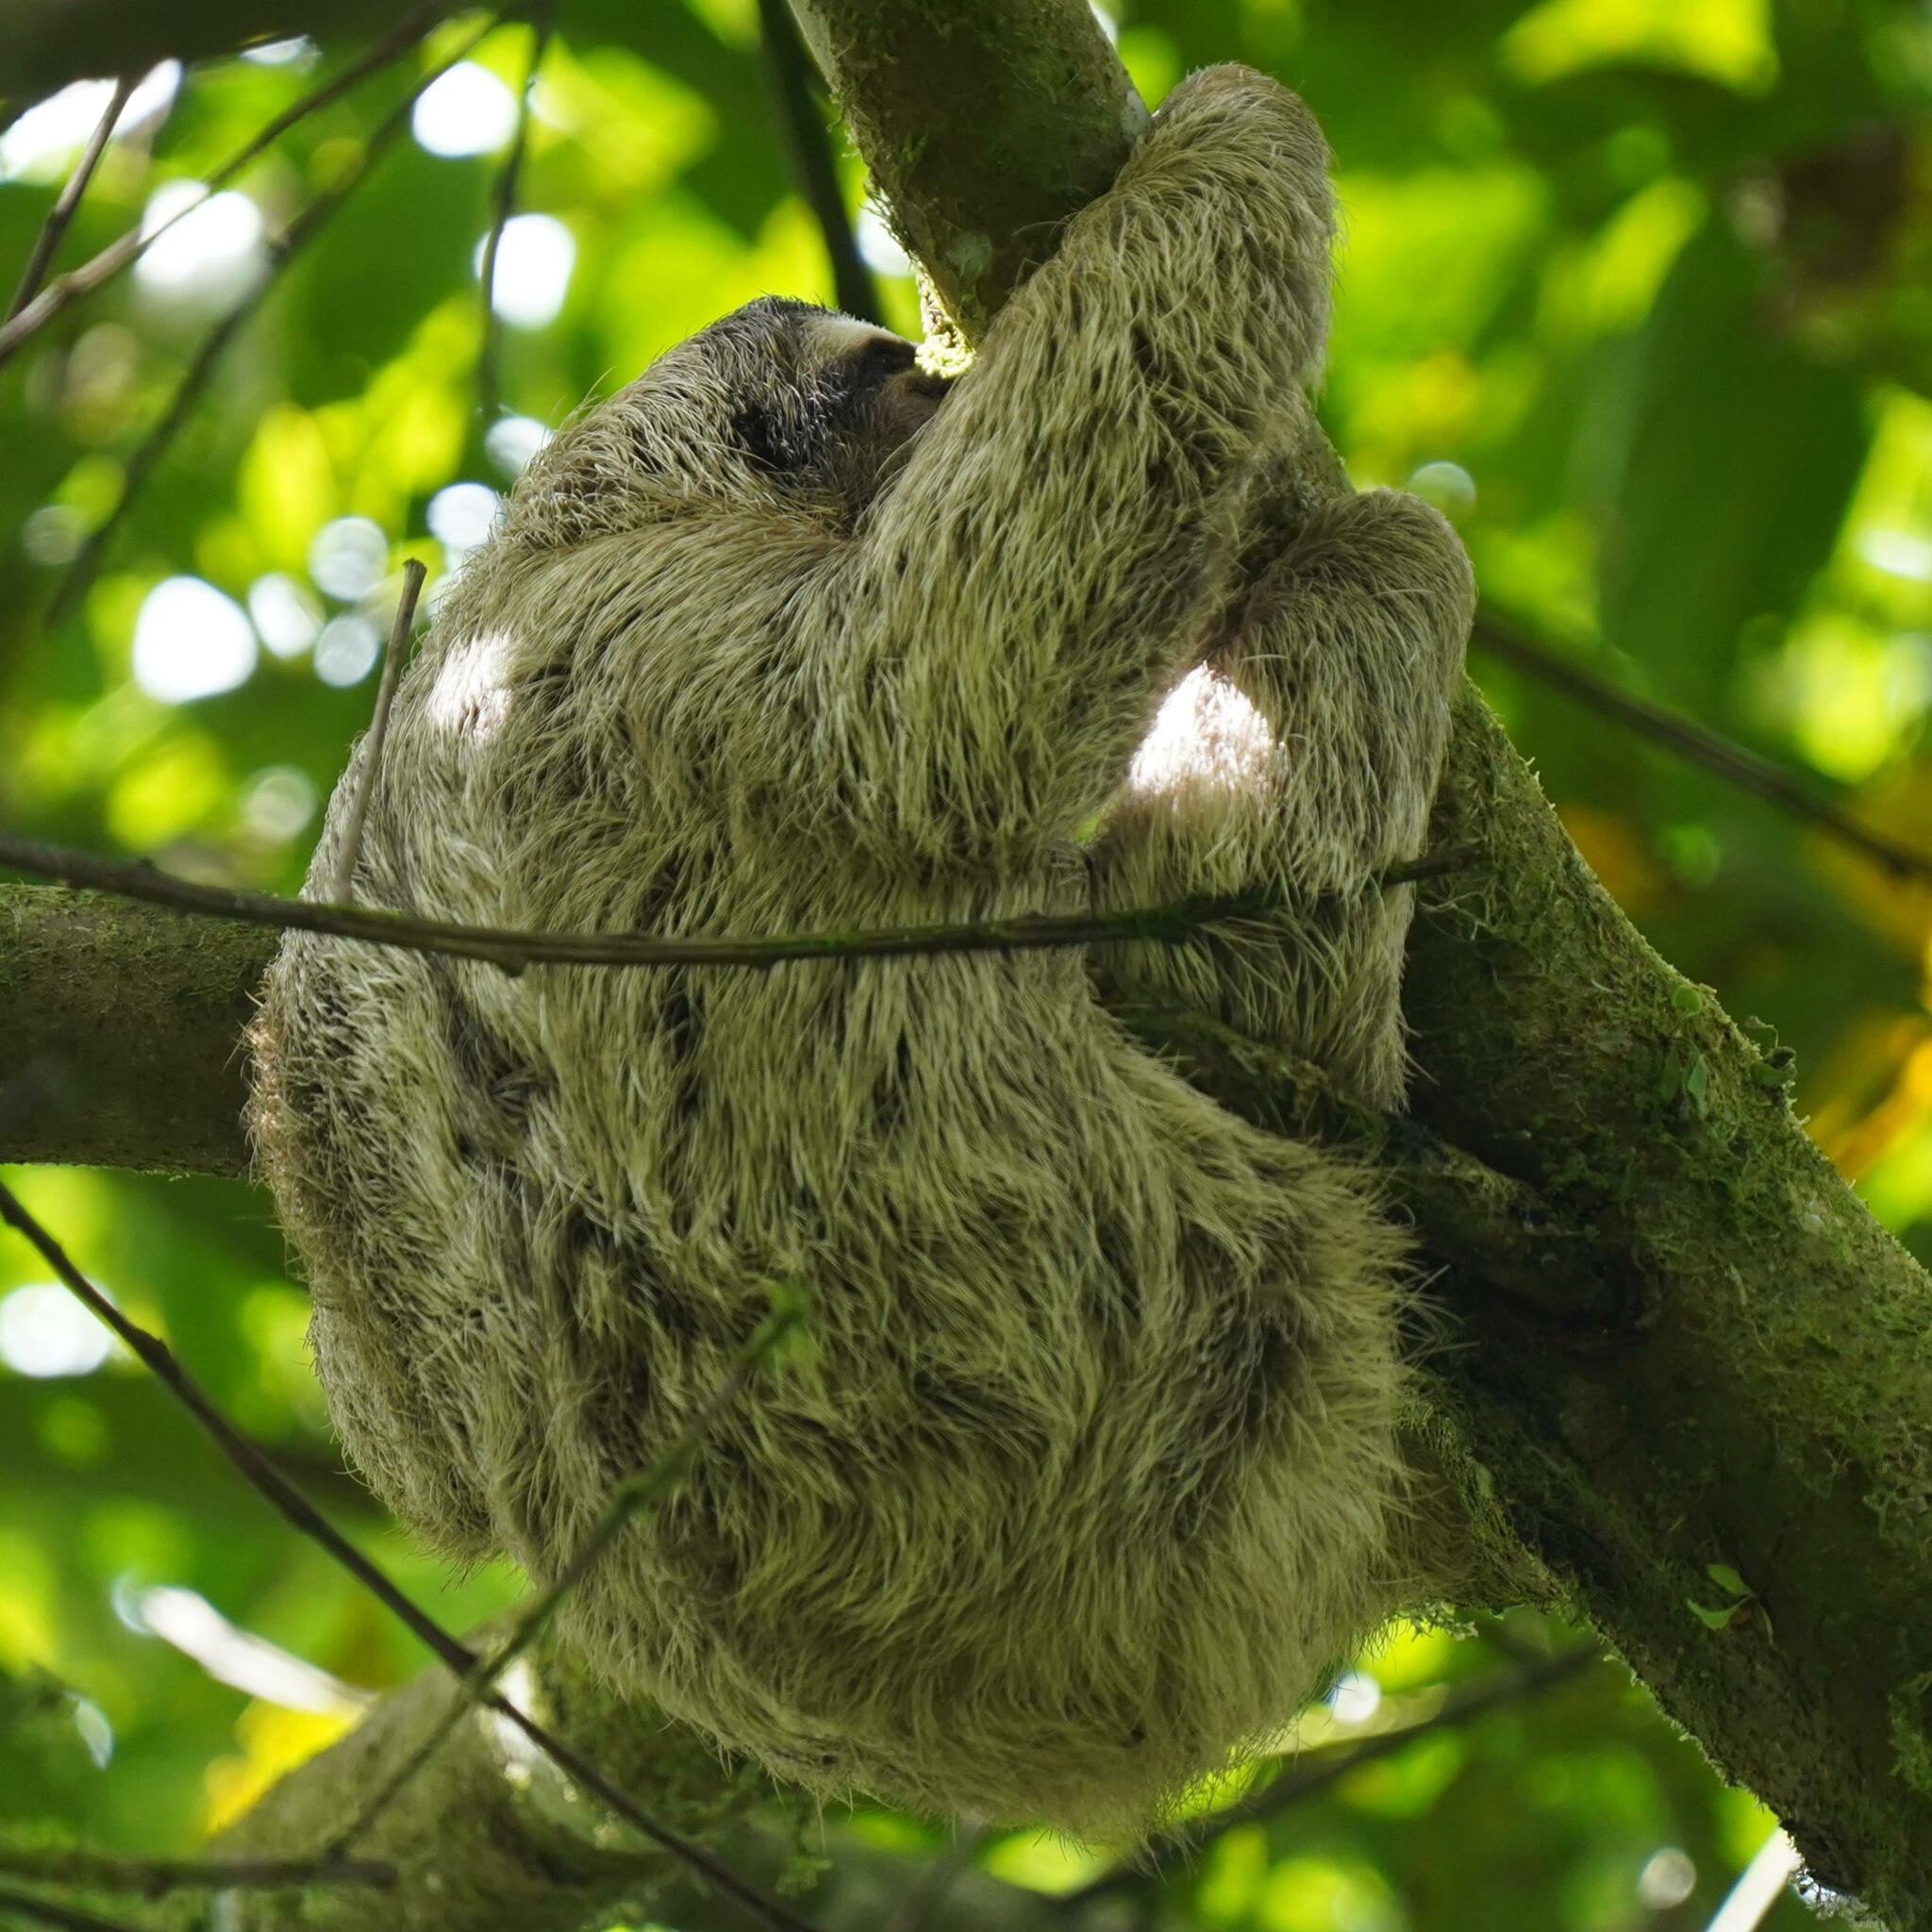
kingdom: Animalia
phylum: Chordata
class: Mammalia
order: Pilosa
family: Bradypodidae
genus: Bradypus
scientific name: Bradypus variegatus
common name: Brown-throated three-toed sloth
